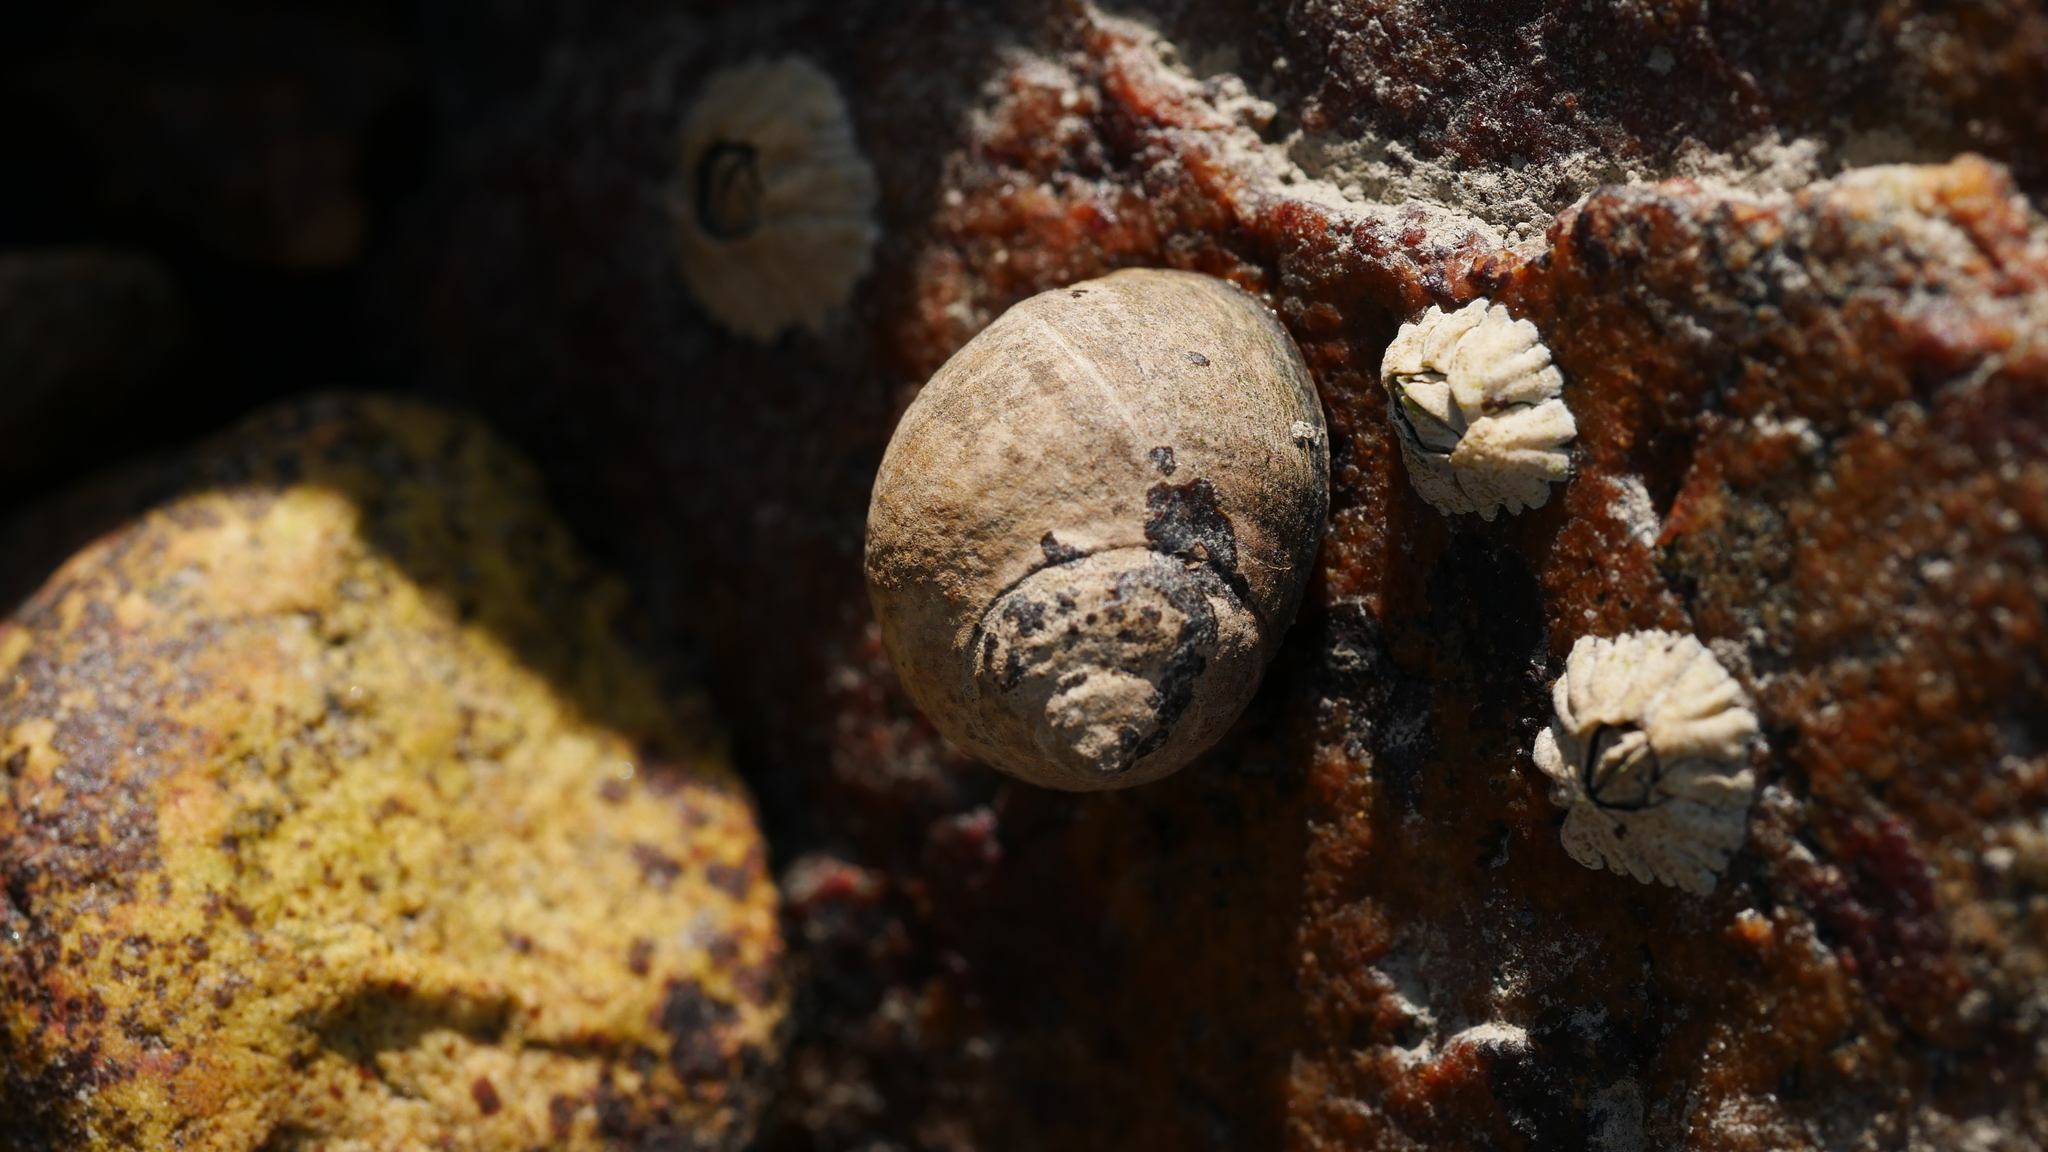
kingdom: Animalia
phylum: Mollusca
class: Gastropoda
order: Littorinimorpha
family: Littorinidae
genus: Littorina
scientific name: Littorina littorea
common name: Common periwinkle
